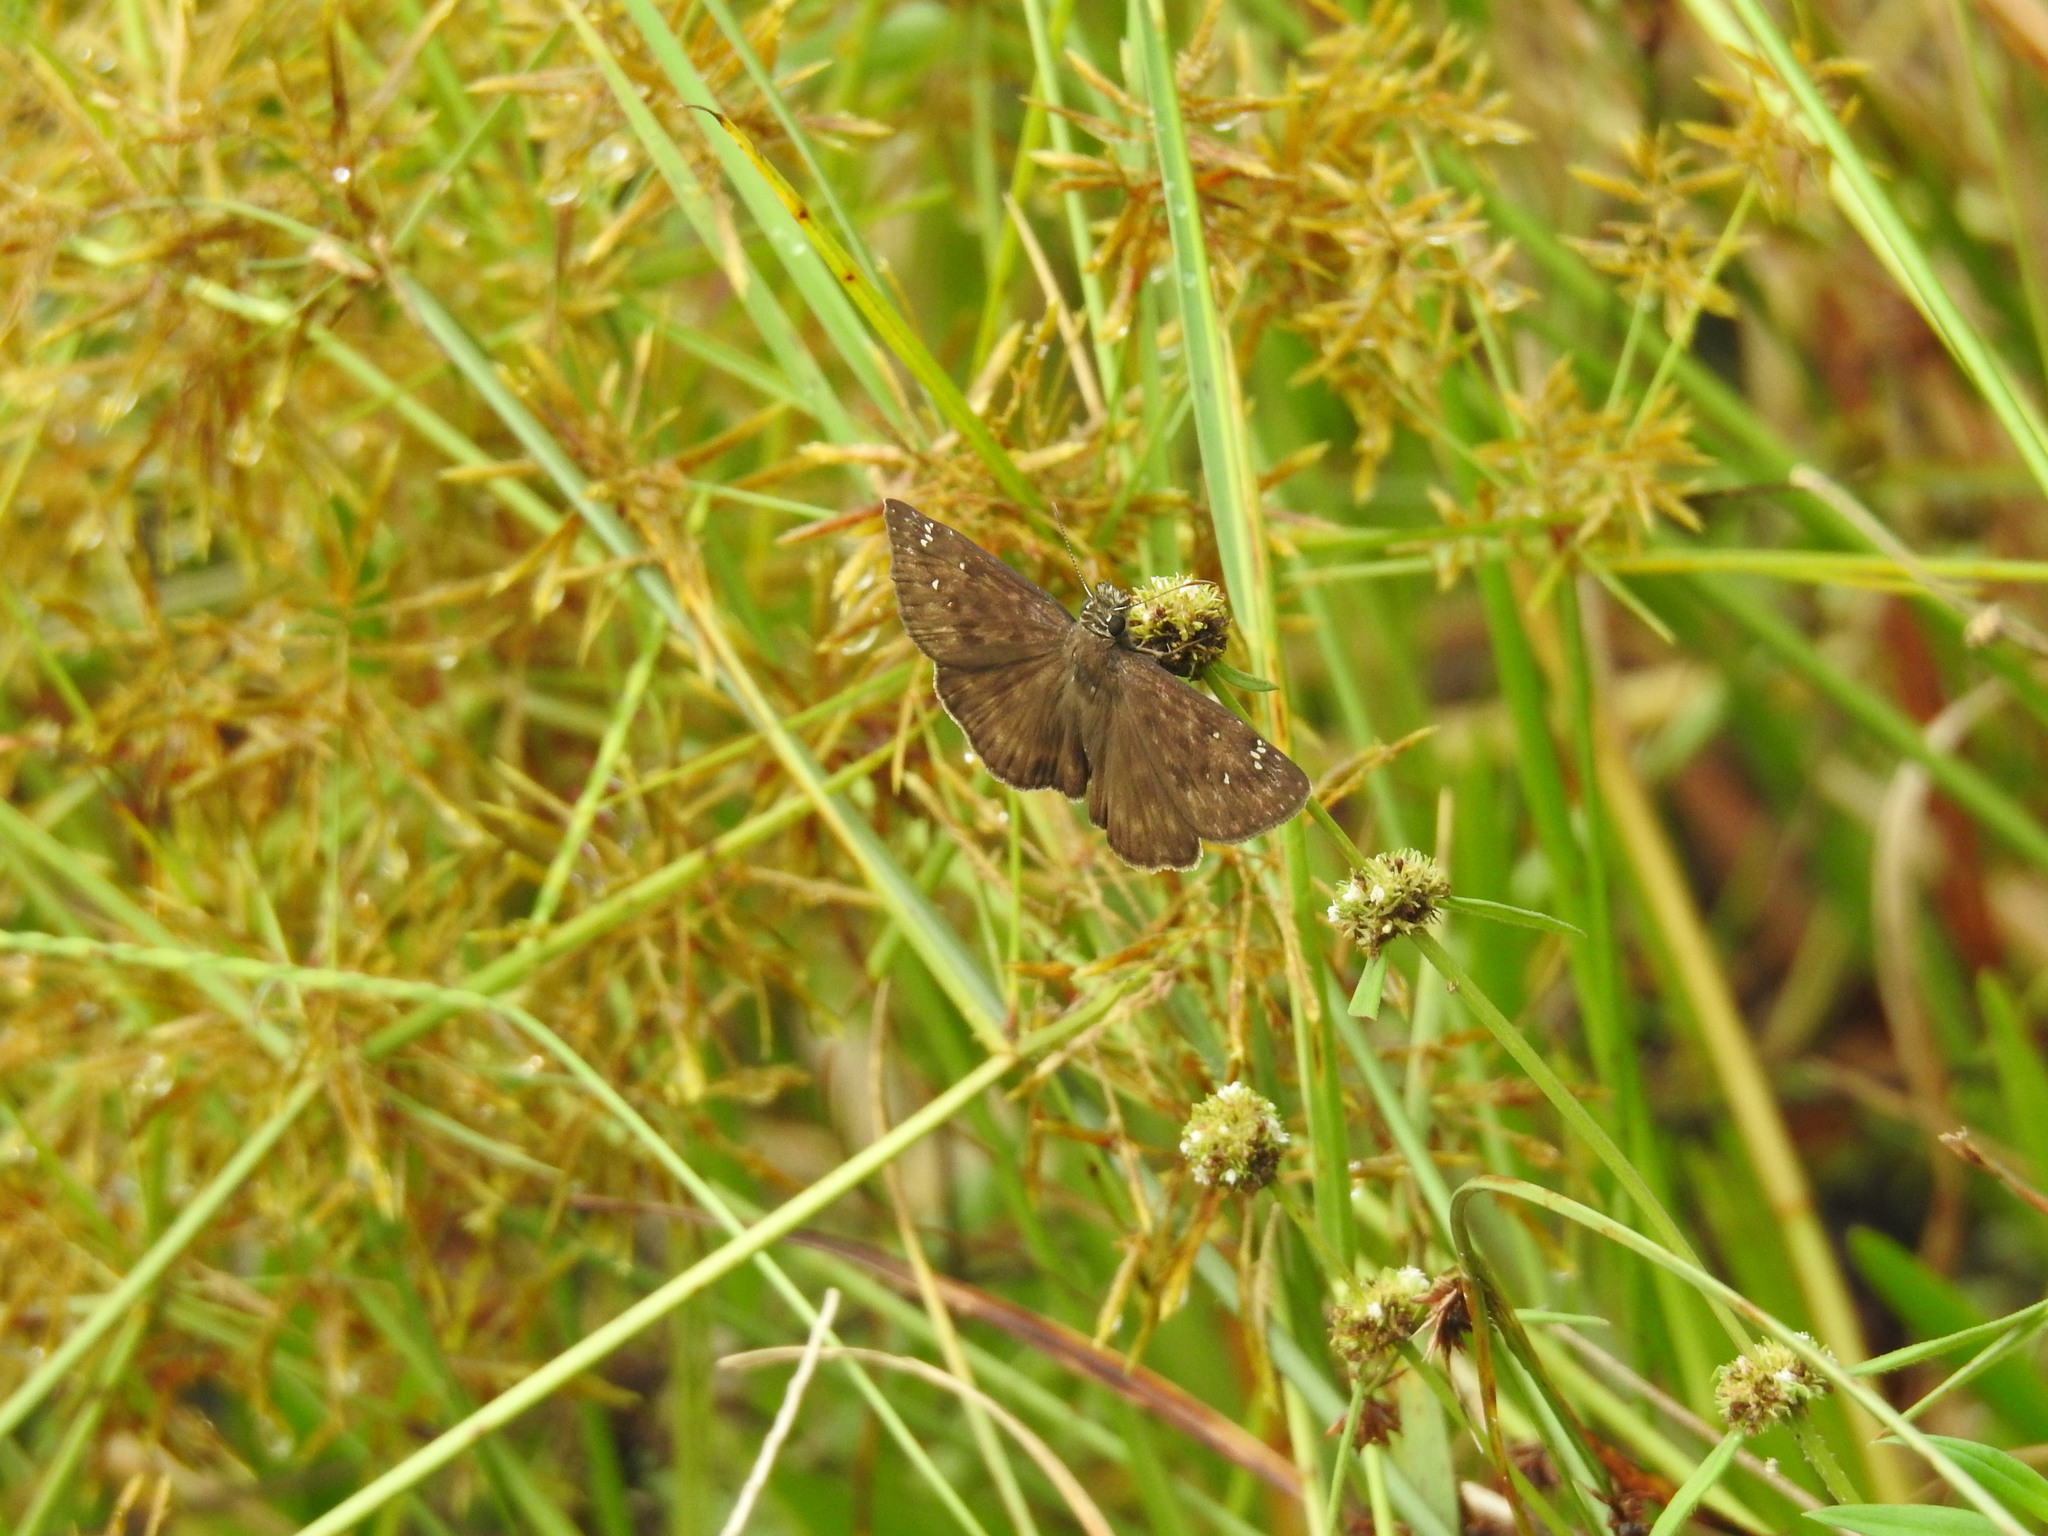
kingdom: Animalia
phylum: Arthropoda
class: Insecta
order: Lepidoptera
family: Hesperiidae
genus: Erynnis
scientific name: Erynnis horatius
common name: Horace's duskywing
